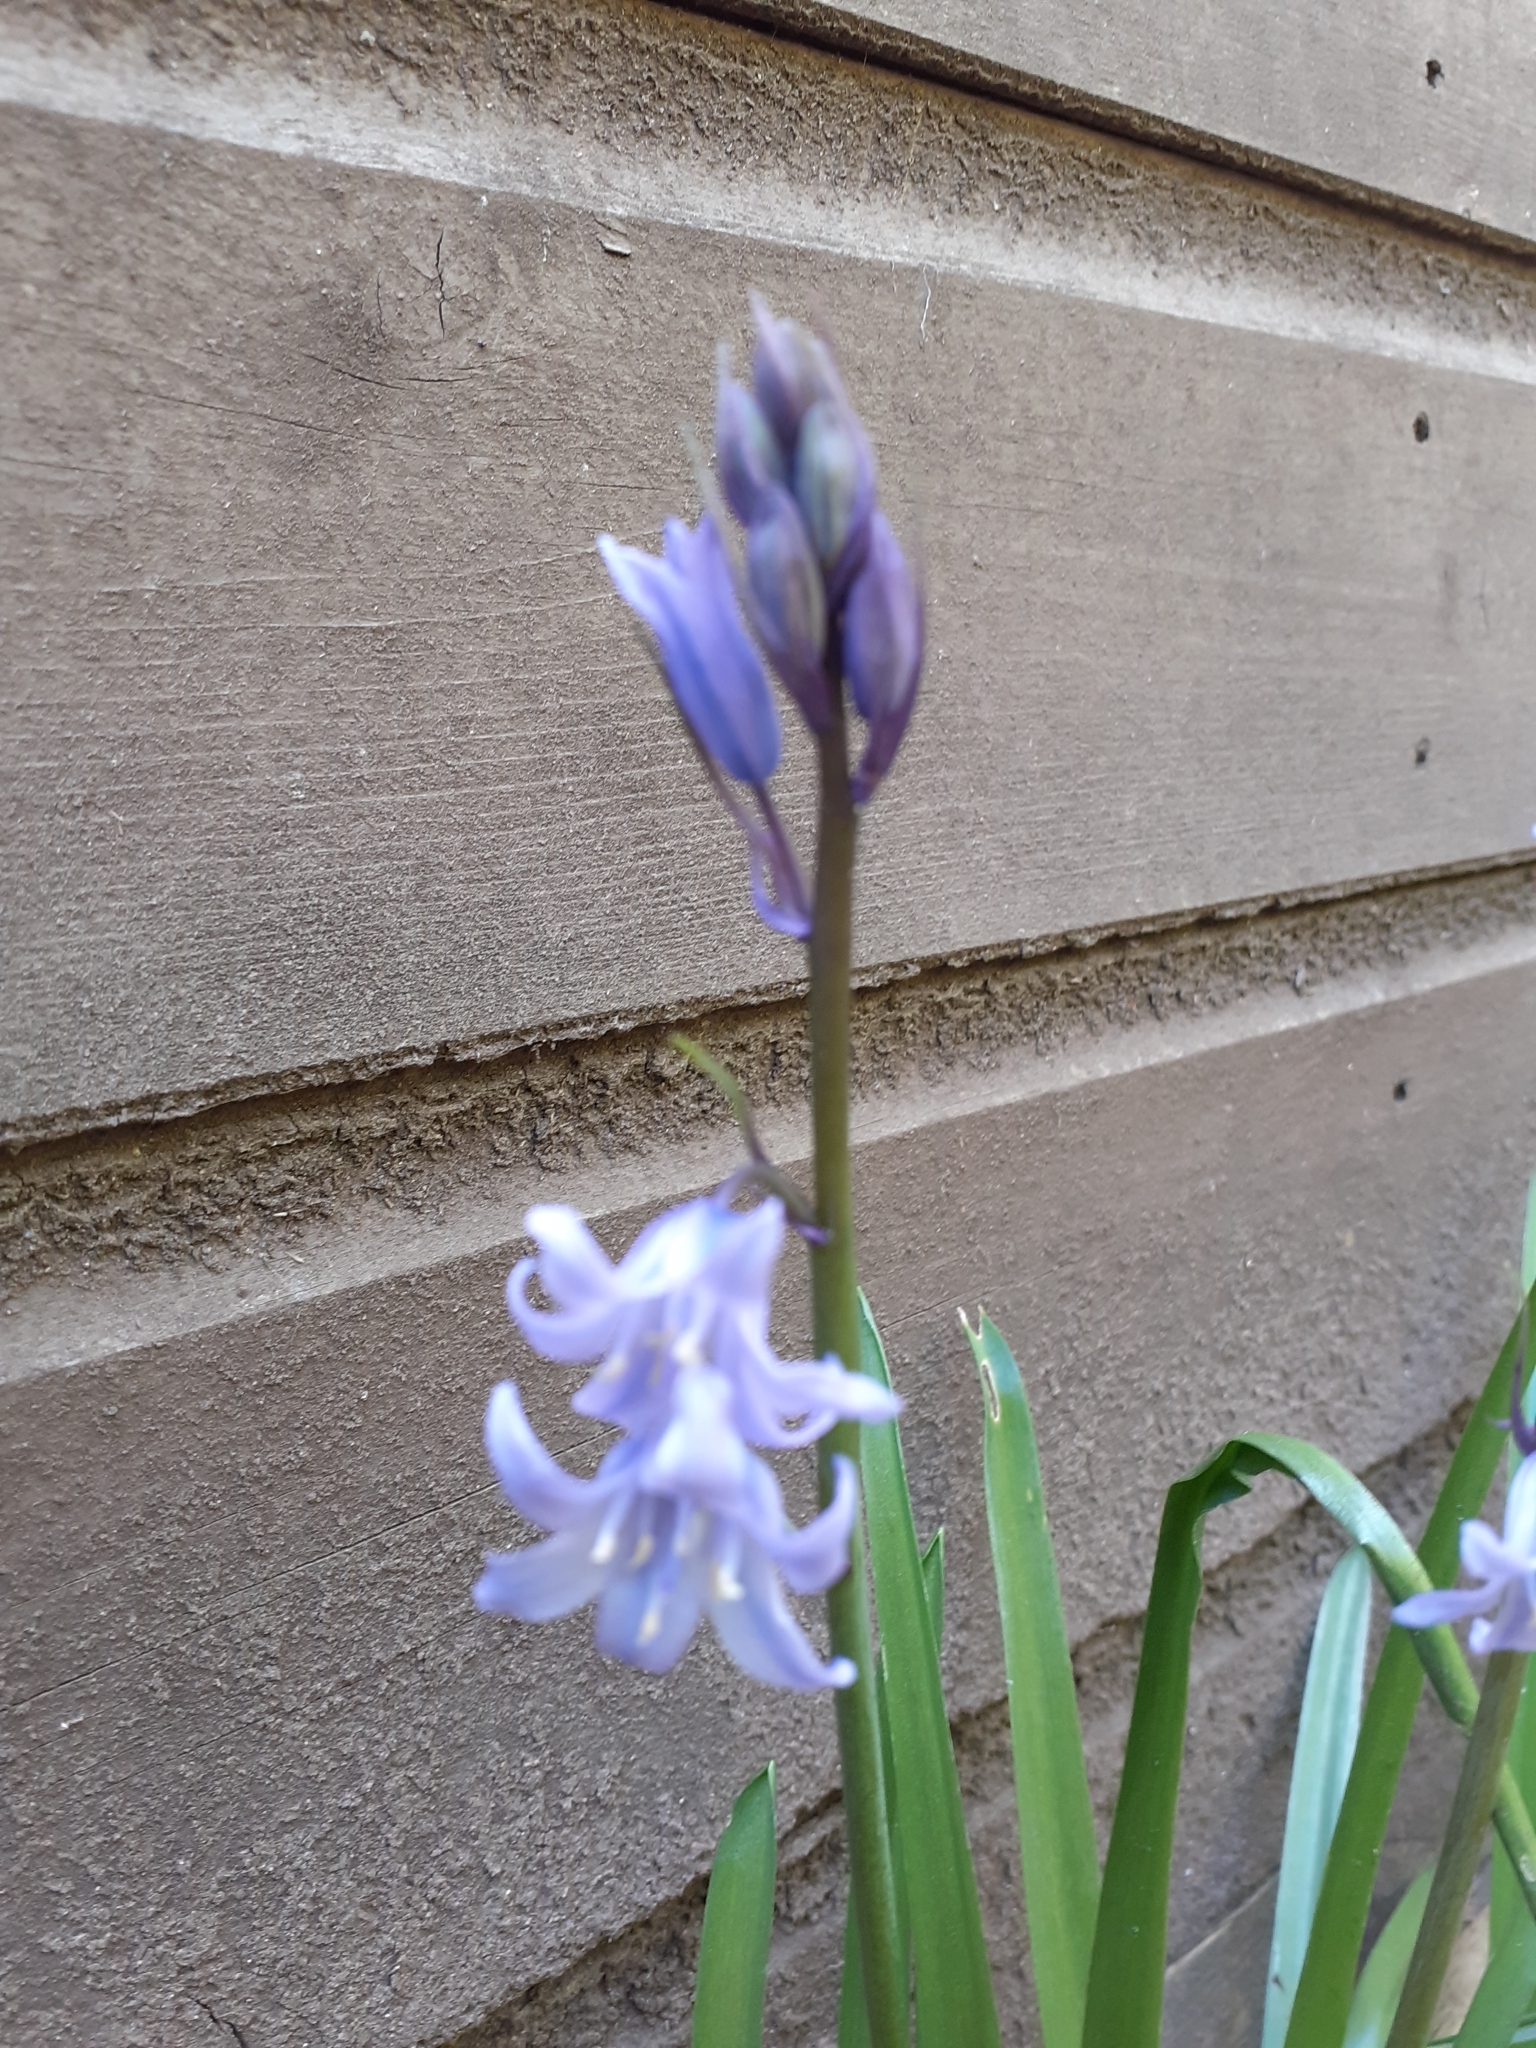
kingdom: Plantae
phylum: Tracheophyta
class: Liliopsida
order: Asparagales
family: Asparagaceae
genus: Hyacinthoides
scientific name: Hyacinthoides hispanica
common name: Spanish bluebell
